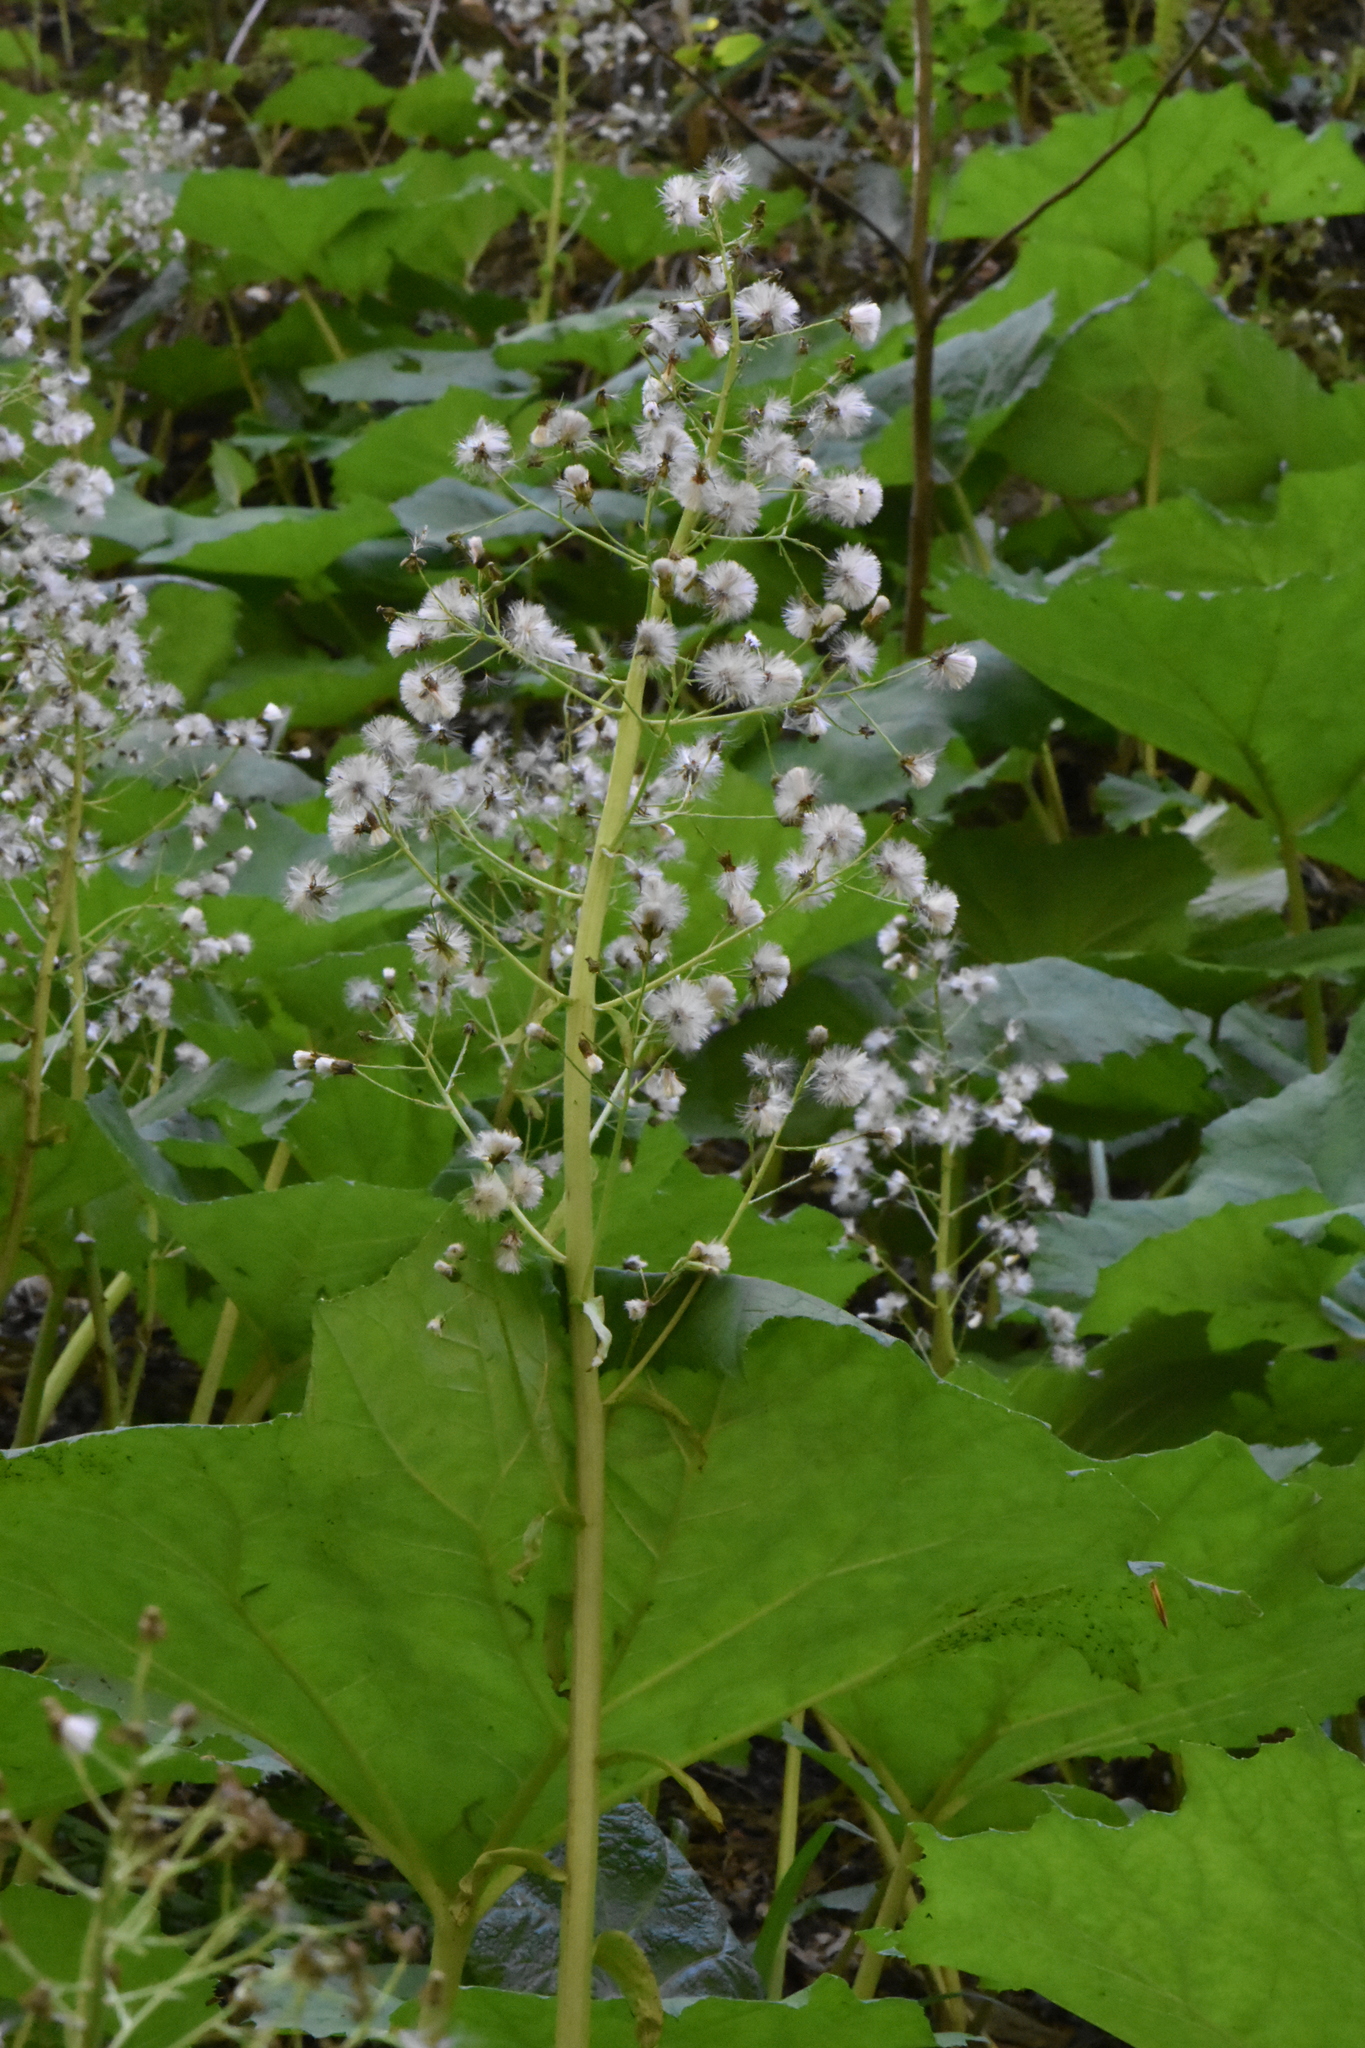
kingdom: Plantae
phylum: Tracheophyta
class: Magnoliopsida
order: Asterales
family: Asteraceae
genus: Petasites
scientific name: Petasites albus
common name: White butterbur
